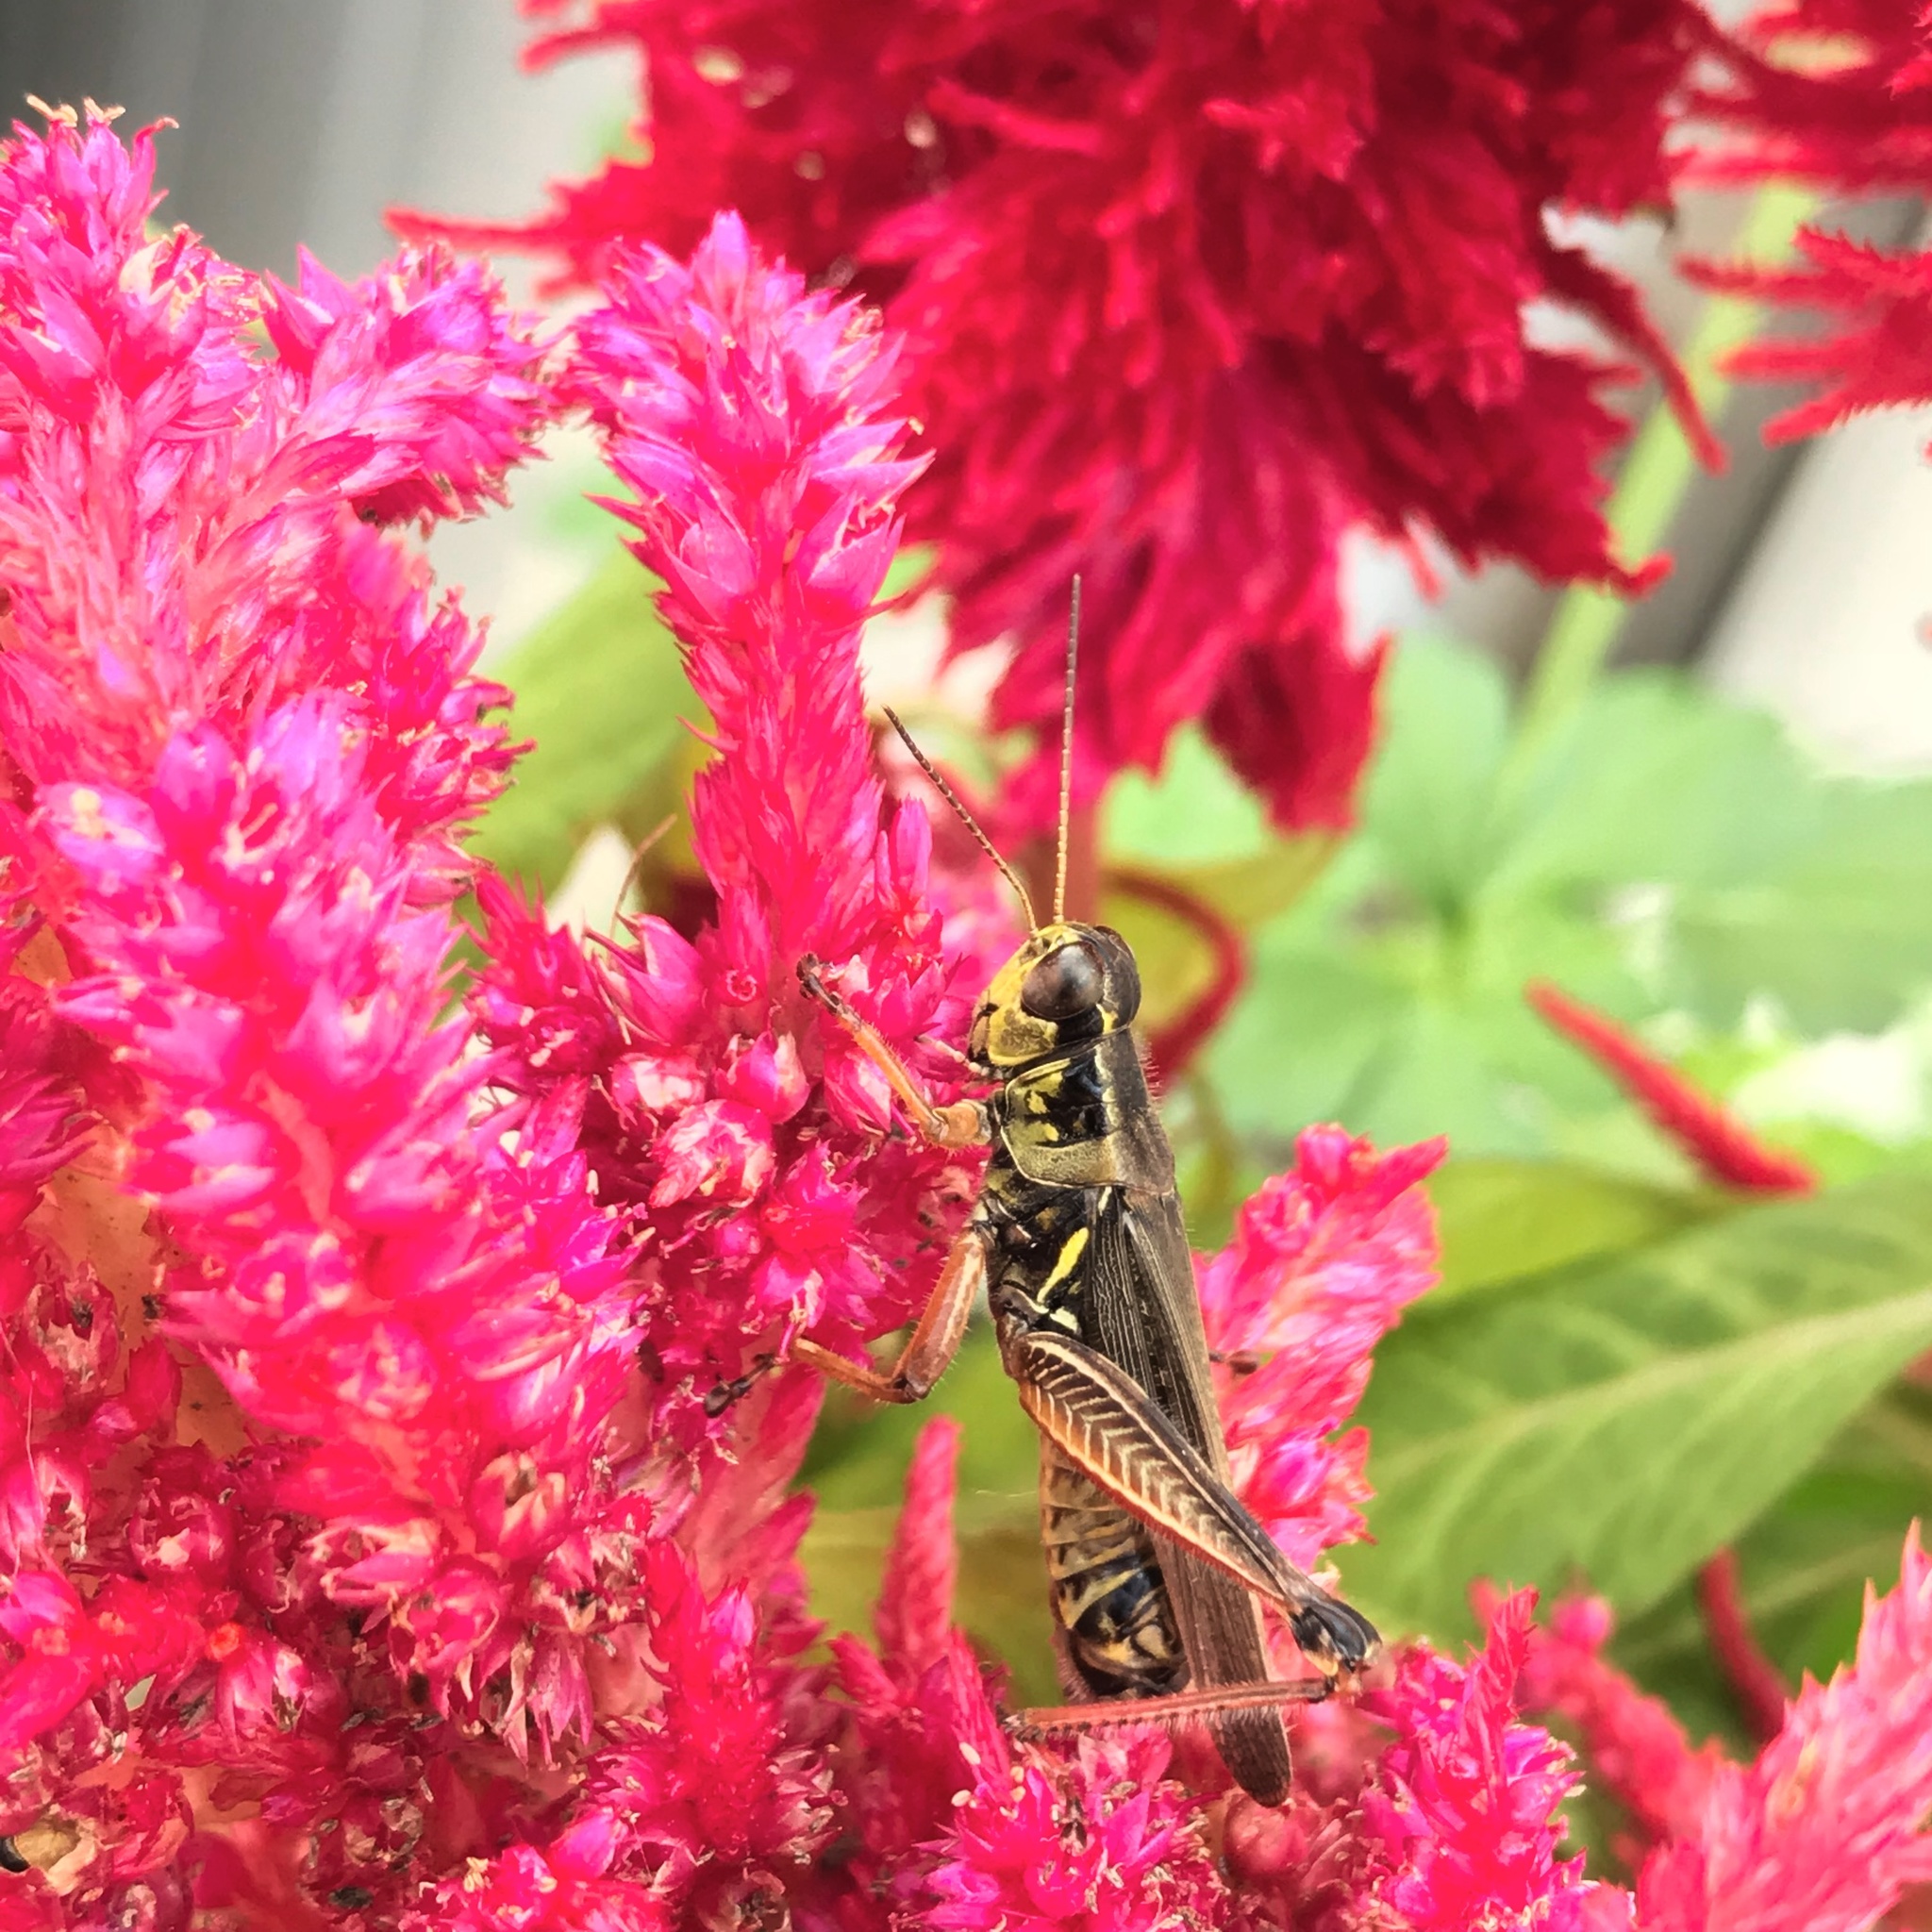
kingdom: Animalia
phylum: Arthropoda
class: Insecta
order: Orthoptera
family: Acrididae
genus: Melanoplus
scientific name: Melanoplus femurrubrum
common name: Red-legged grasshopper
